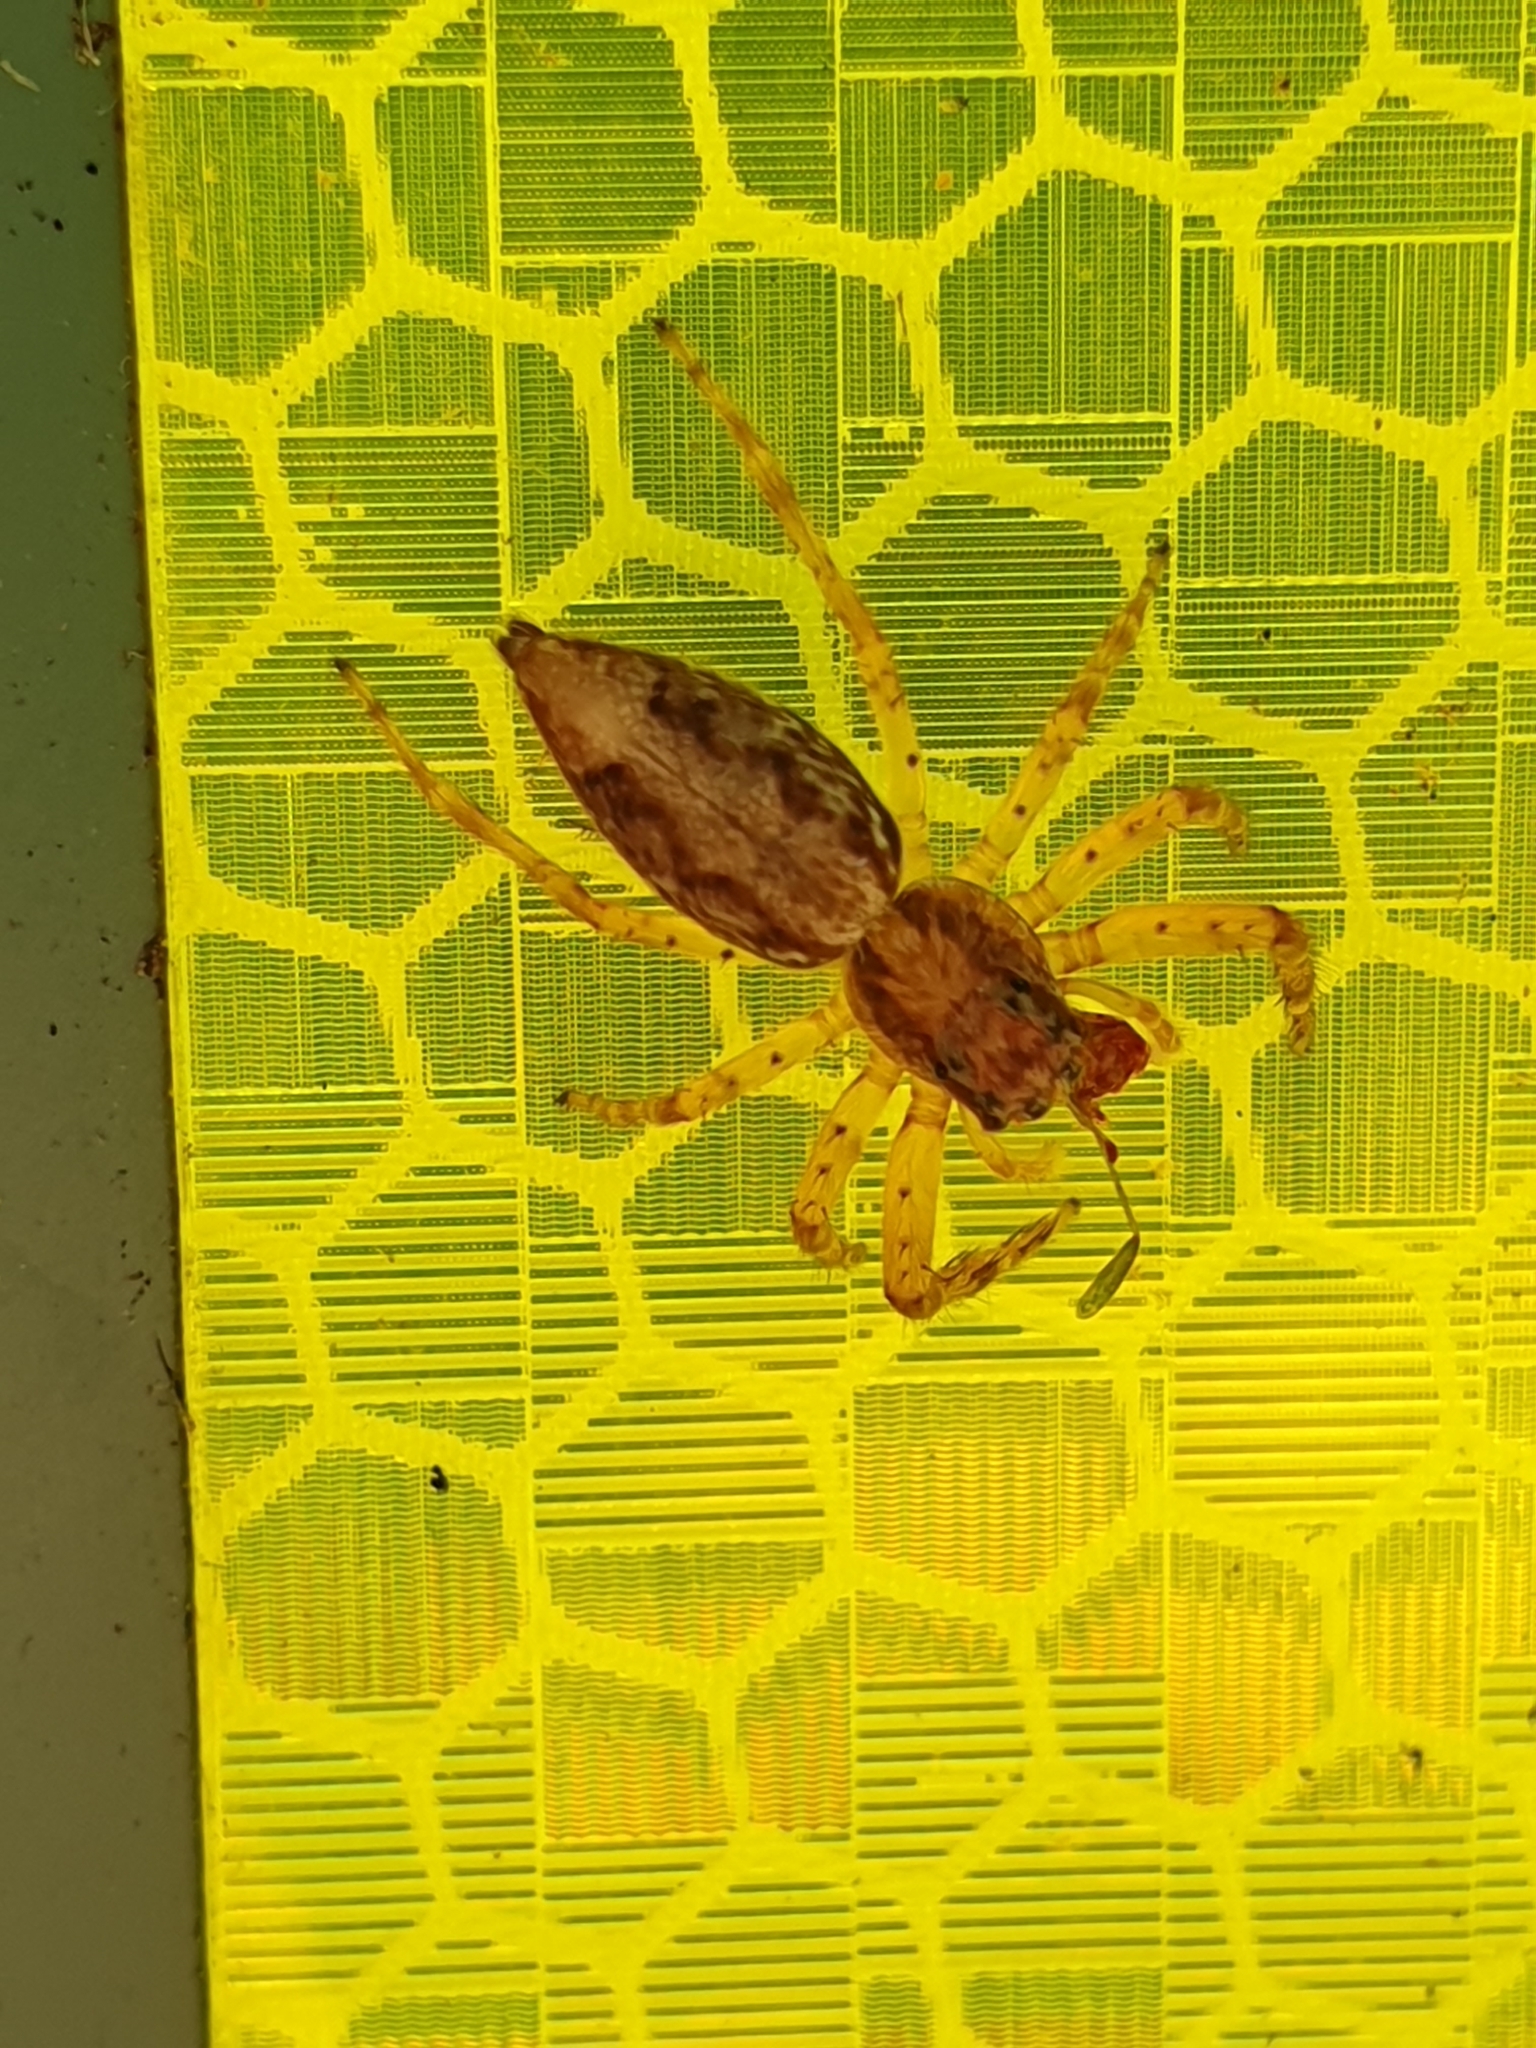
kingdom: Animalia
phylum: Arthropoda
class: Arachnida
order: Araneae
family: Salticidae
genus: Helpis
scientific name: Helpis minitabunda
